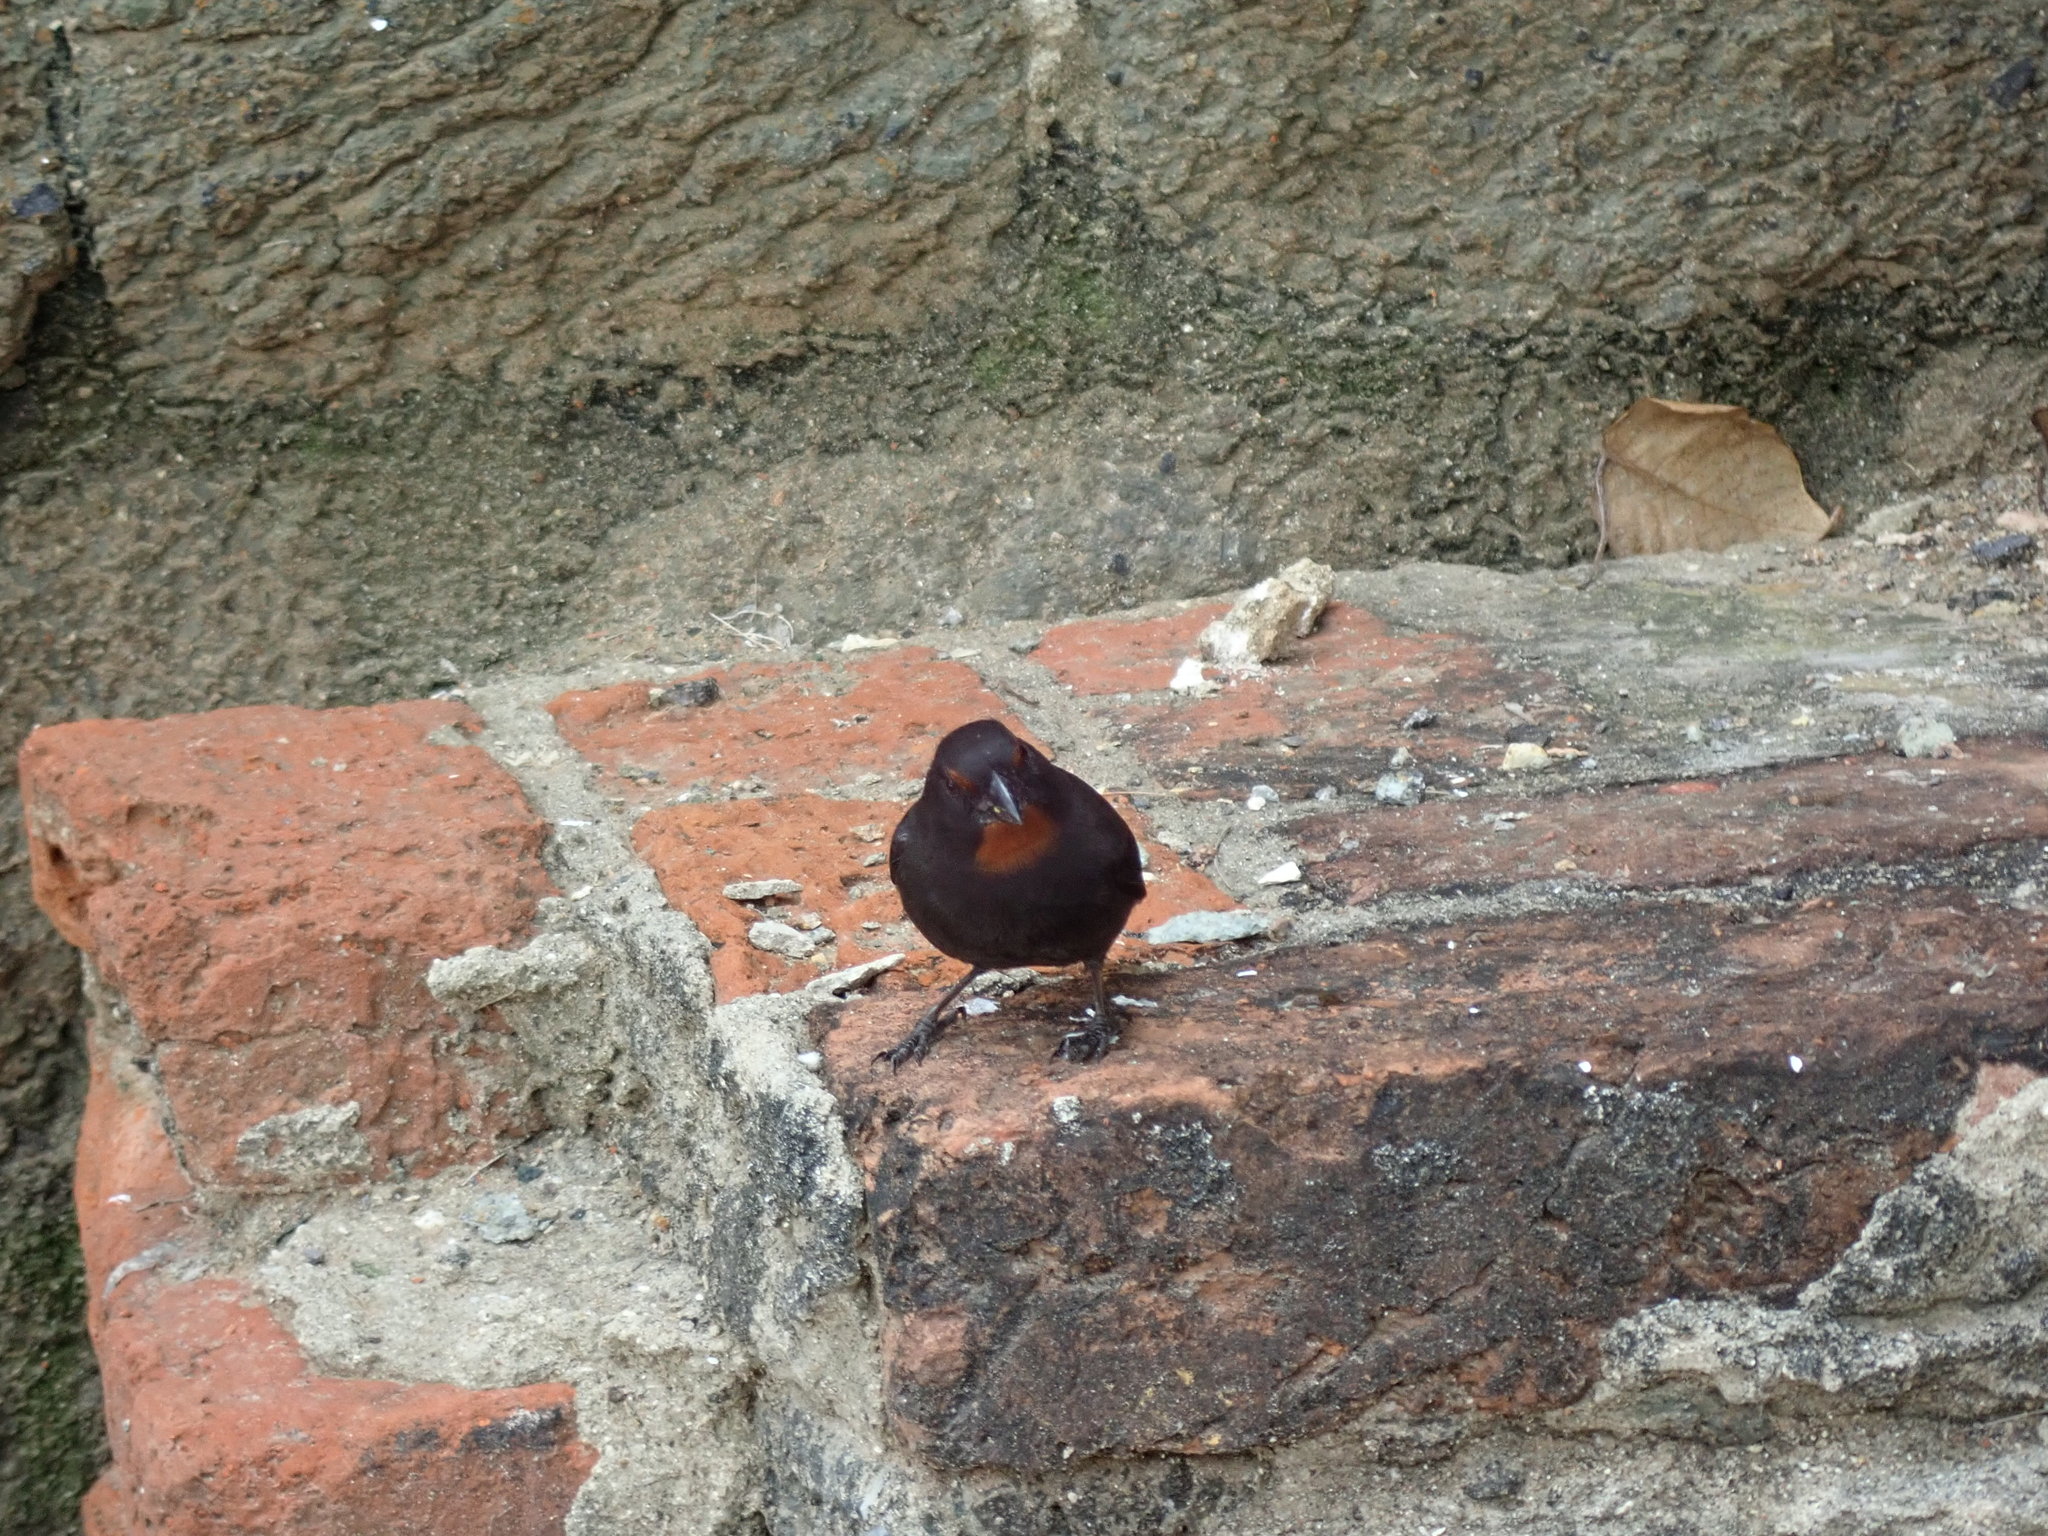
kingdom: Animalia
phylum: Chordata
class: Aves
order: Passeriformes
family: Thraupidae
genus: Loxigilla
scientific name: Loxigilla noctis
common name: Lesser antillean bullfinch
